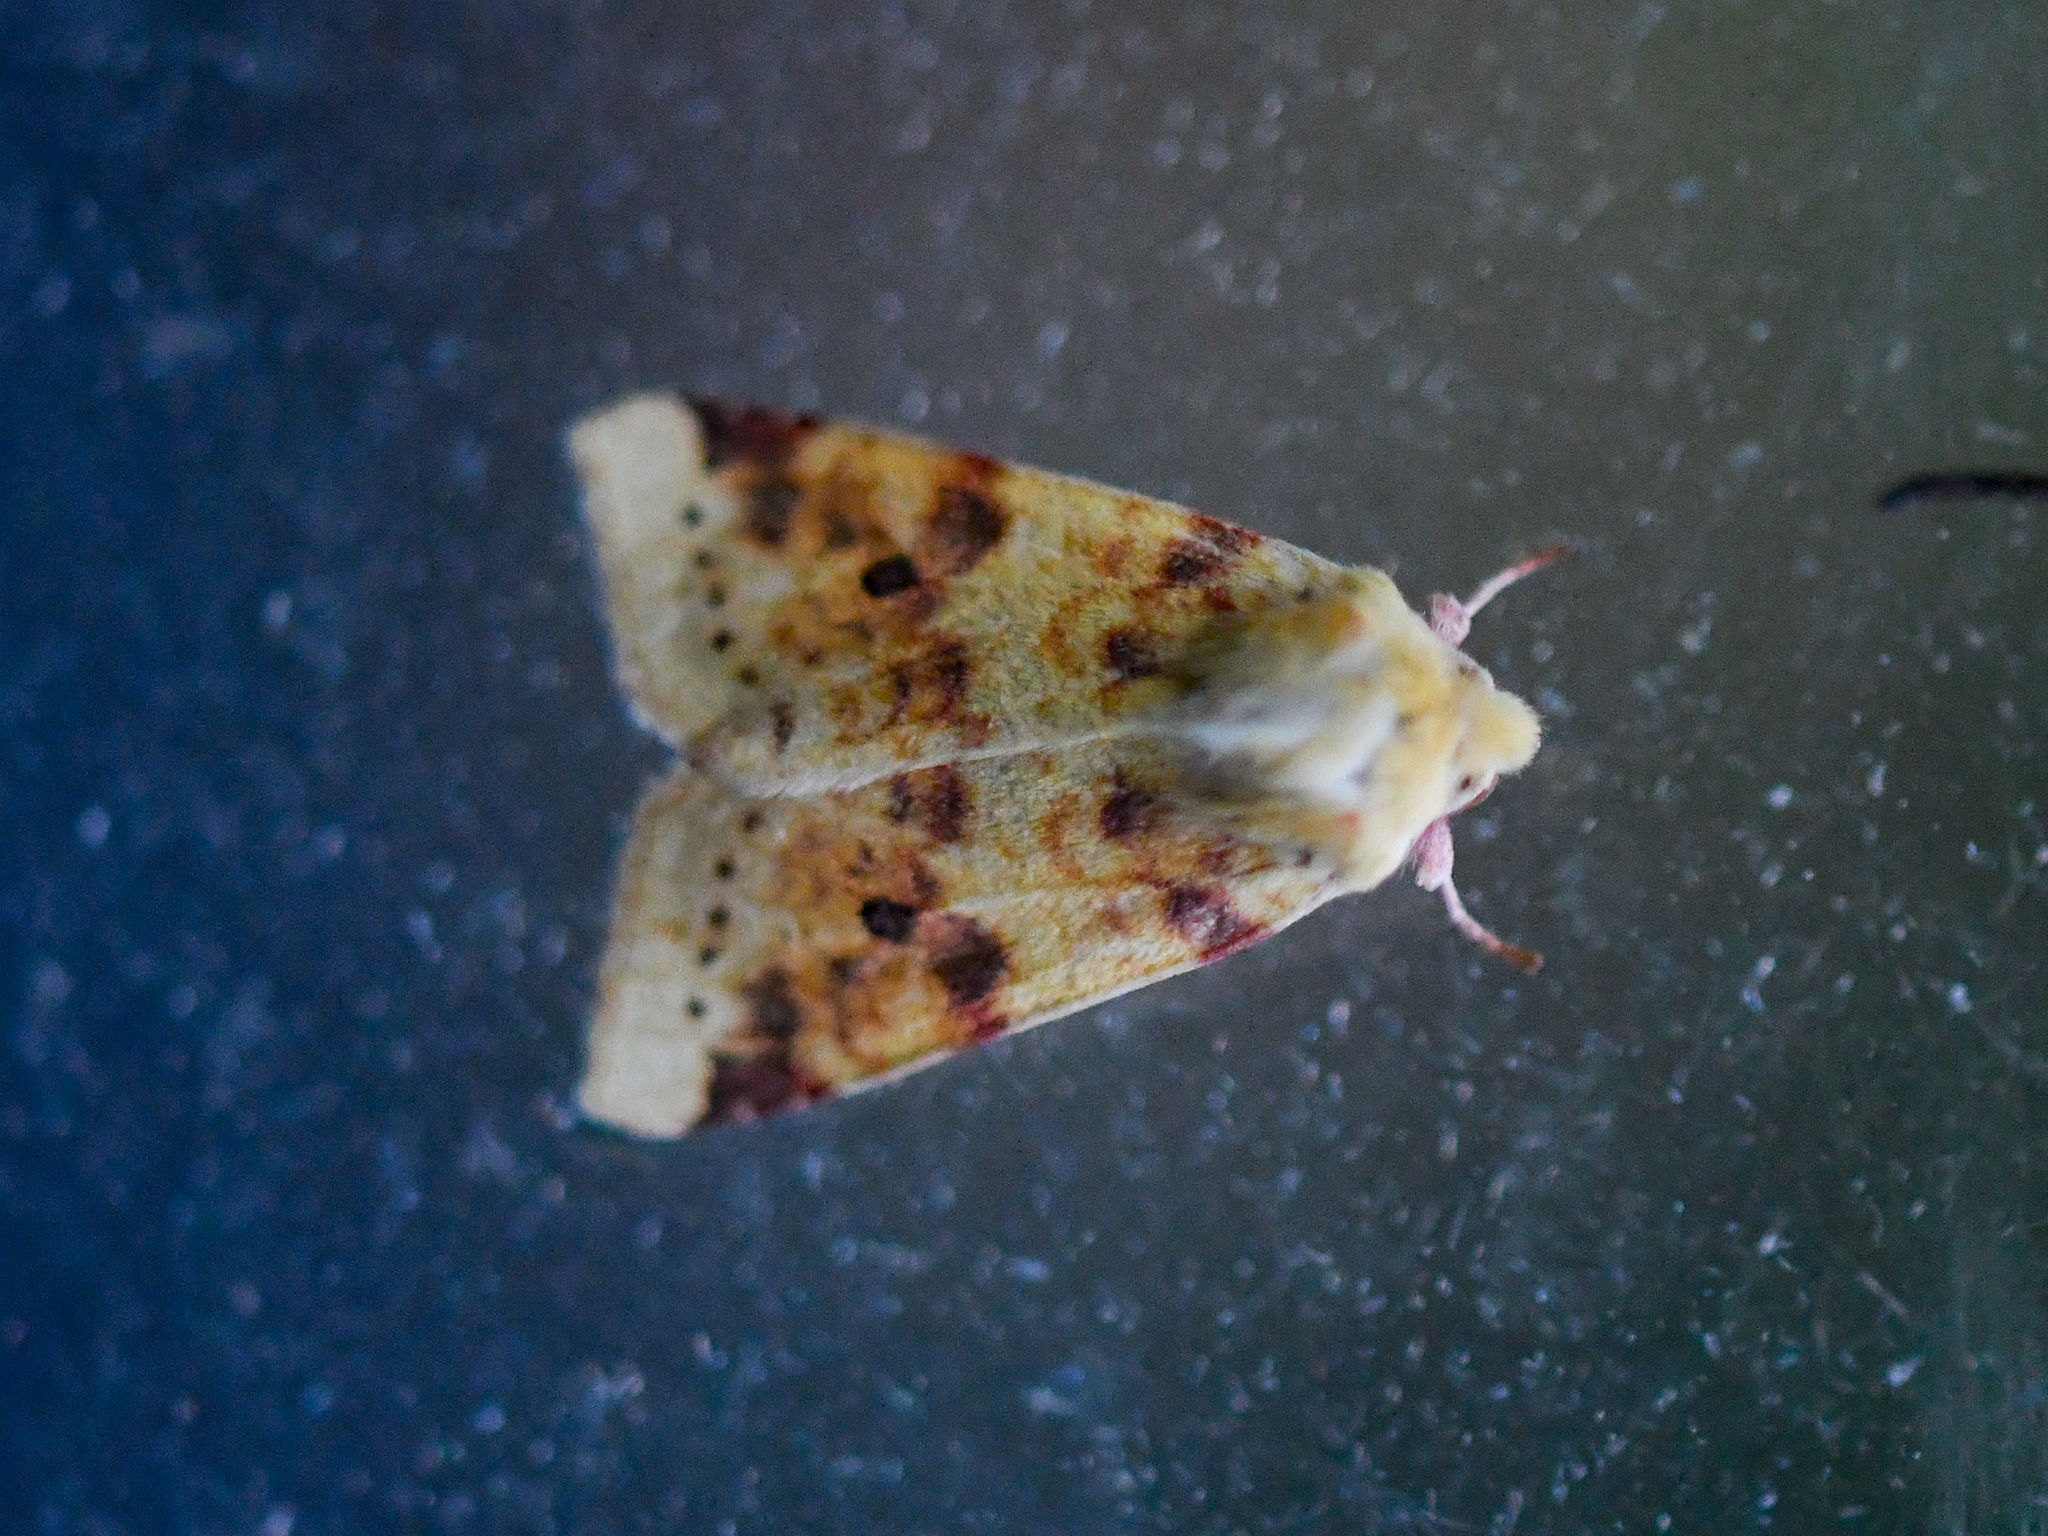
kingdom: Animalia
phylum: Arthropoda
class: Insecta
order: Lepidoptera
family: Noctuidae
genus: Xanthia
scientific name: Xanthia icteritia
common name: The sallow
